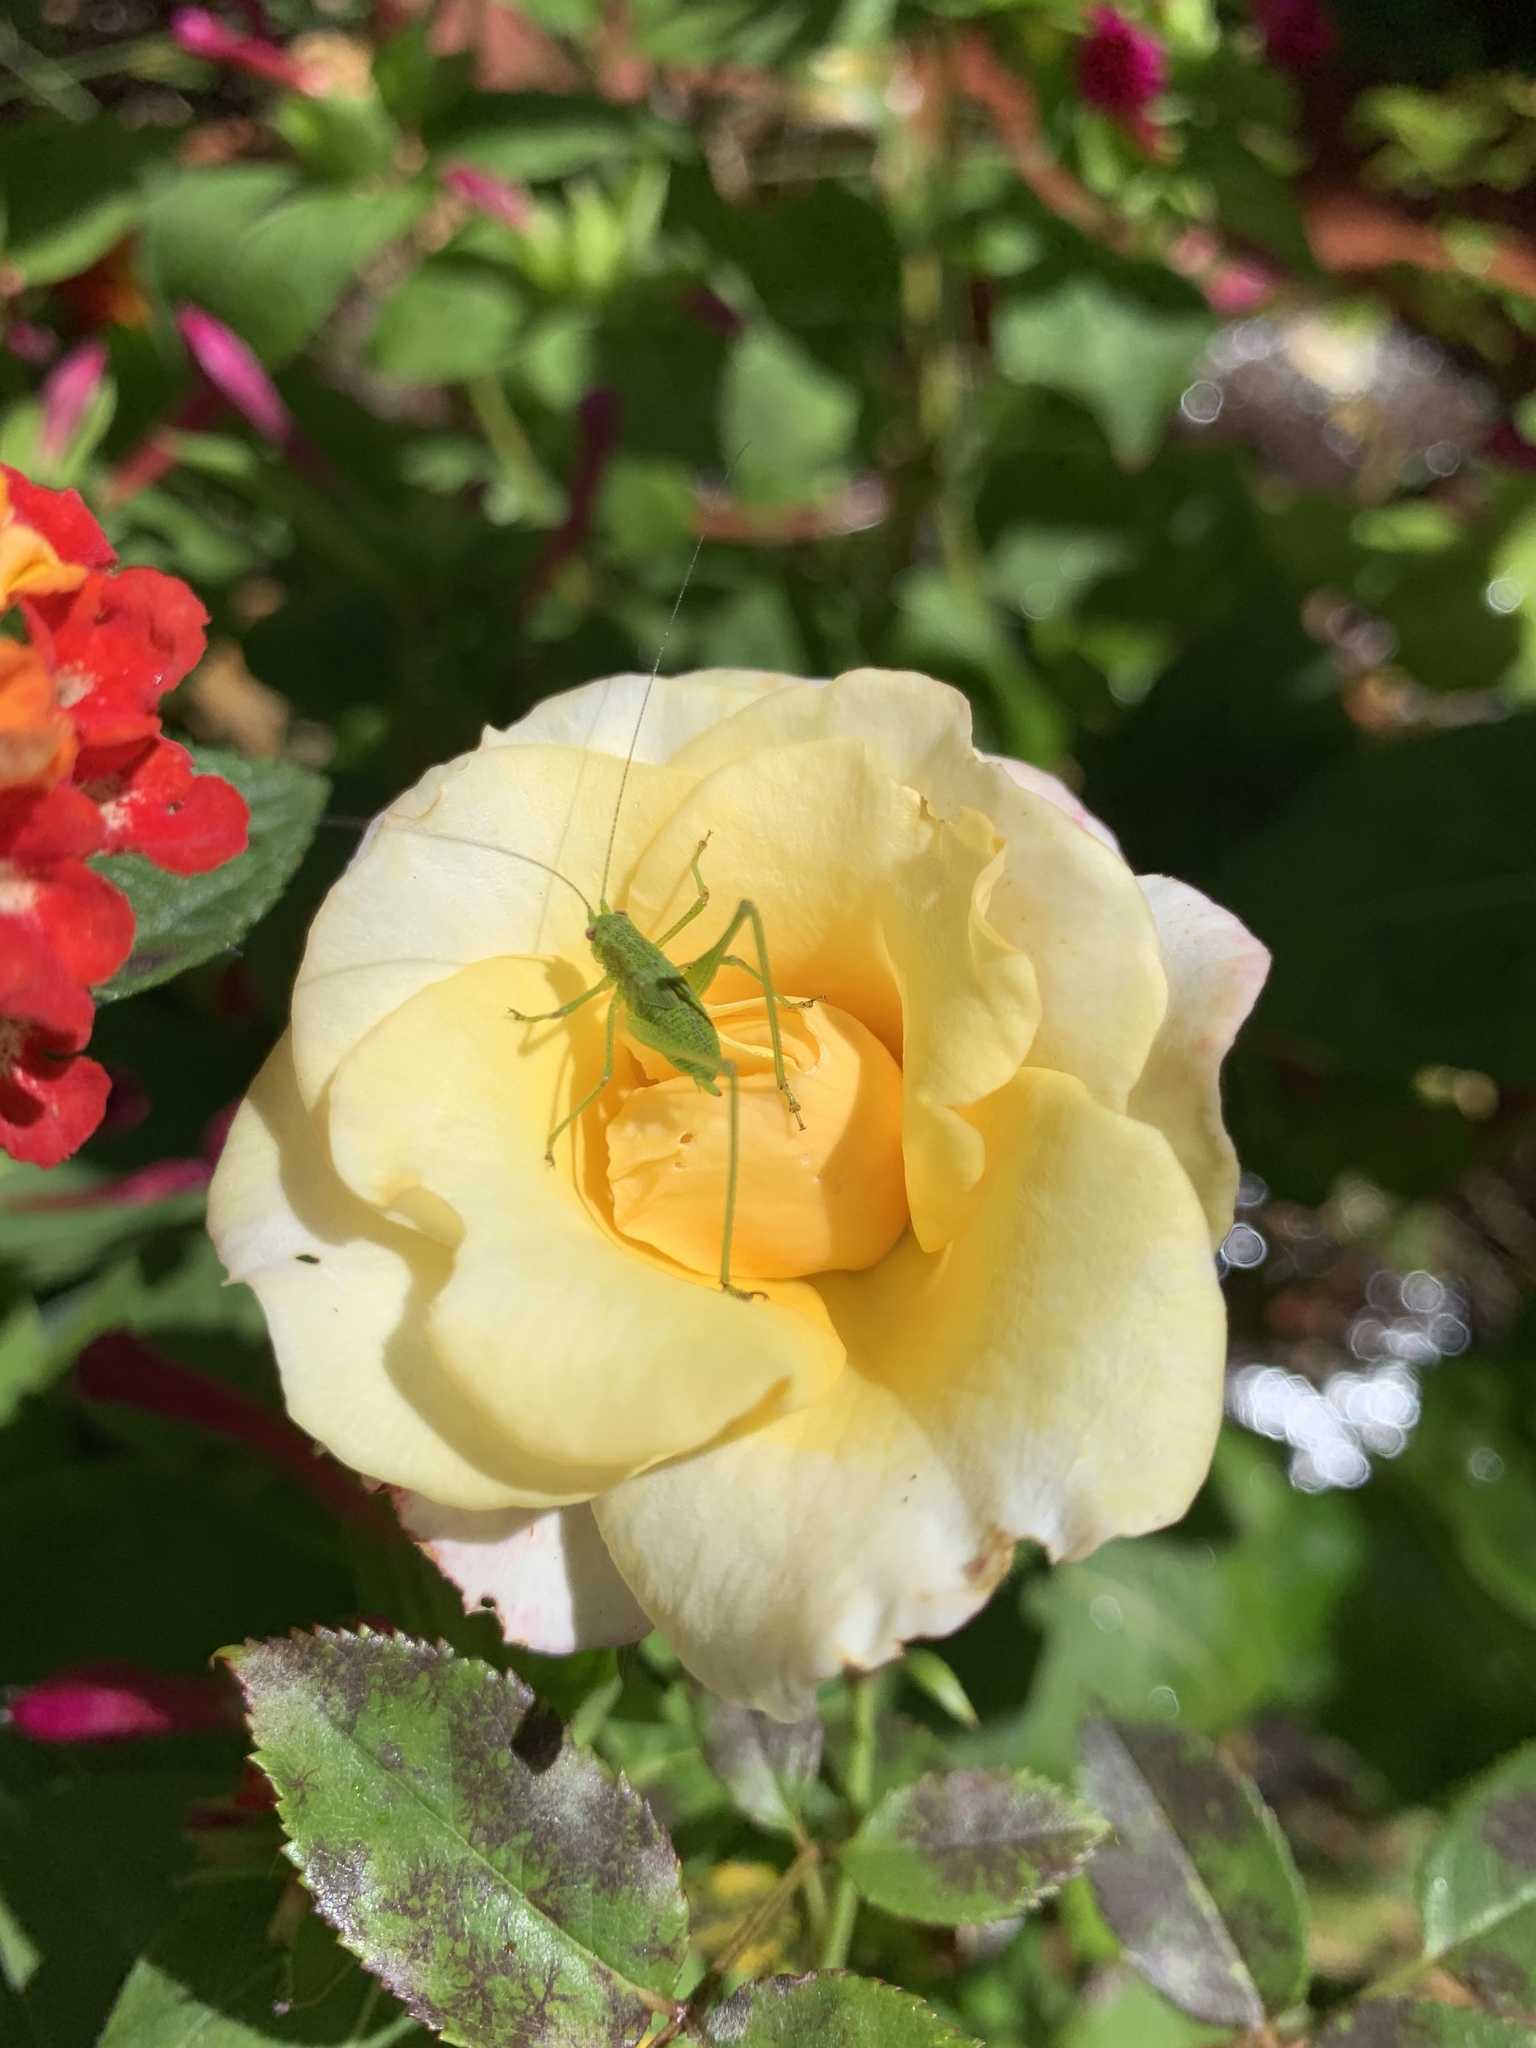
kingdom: Animalia
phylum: Arthropoda
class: Insecta
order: Orthoptera
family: Tettigoniidae
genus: Phaneroptera
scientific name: Phaneroptera nana
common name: Southern sickle bush-cricket
